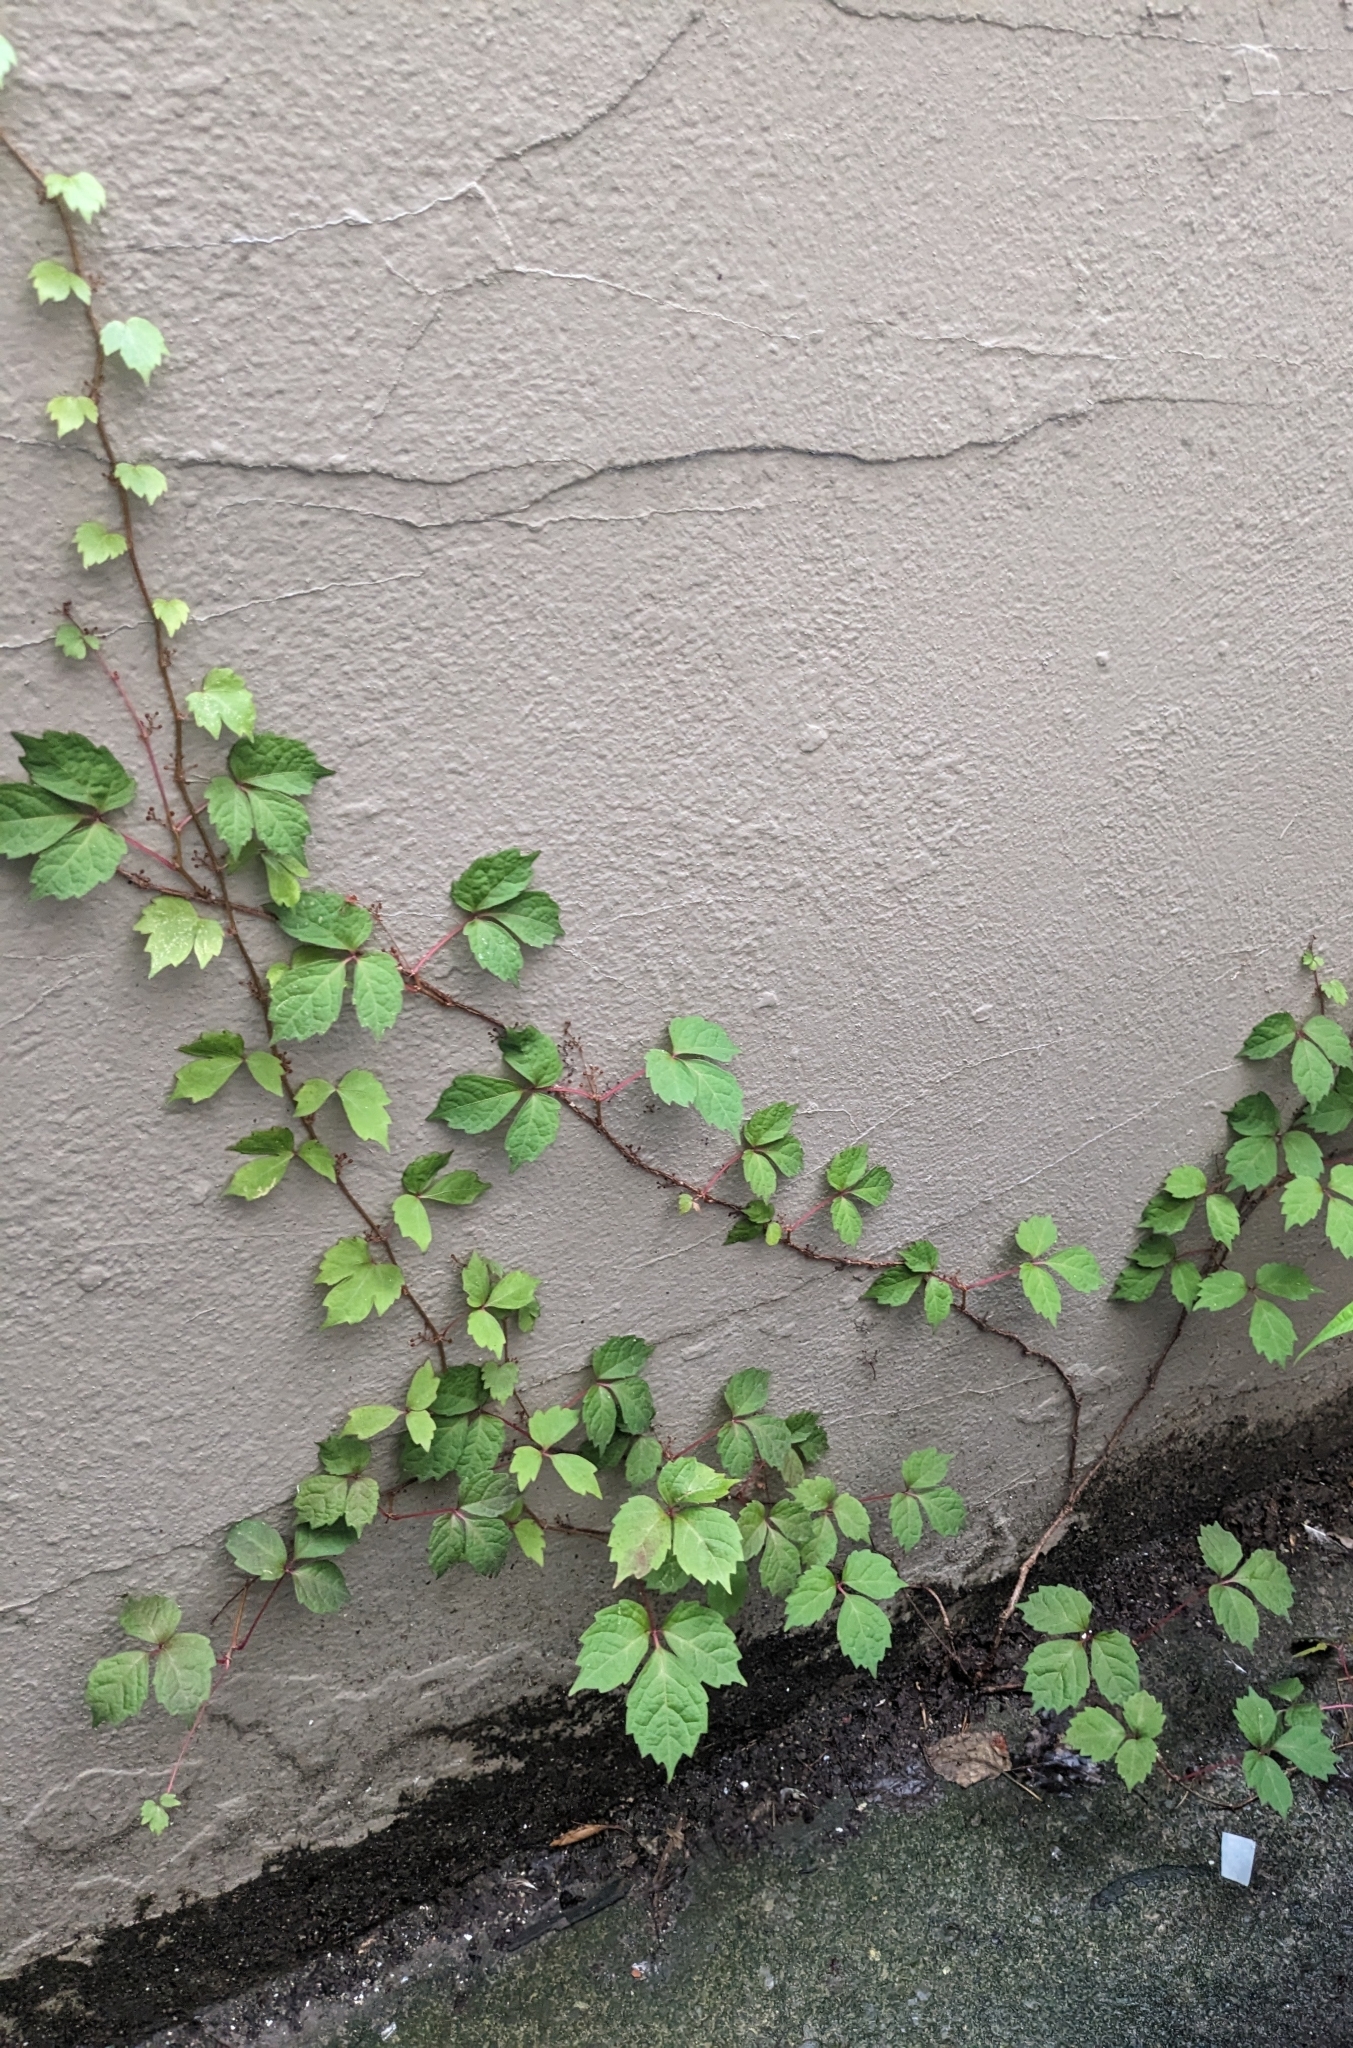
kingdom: Plantae
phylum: Tracheophyta
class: Magnoliopsida
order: Vitales
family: Vitaceae
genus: Parthenocissus
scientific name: Parthenocissus tricuspidata
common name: Boston ivy
